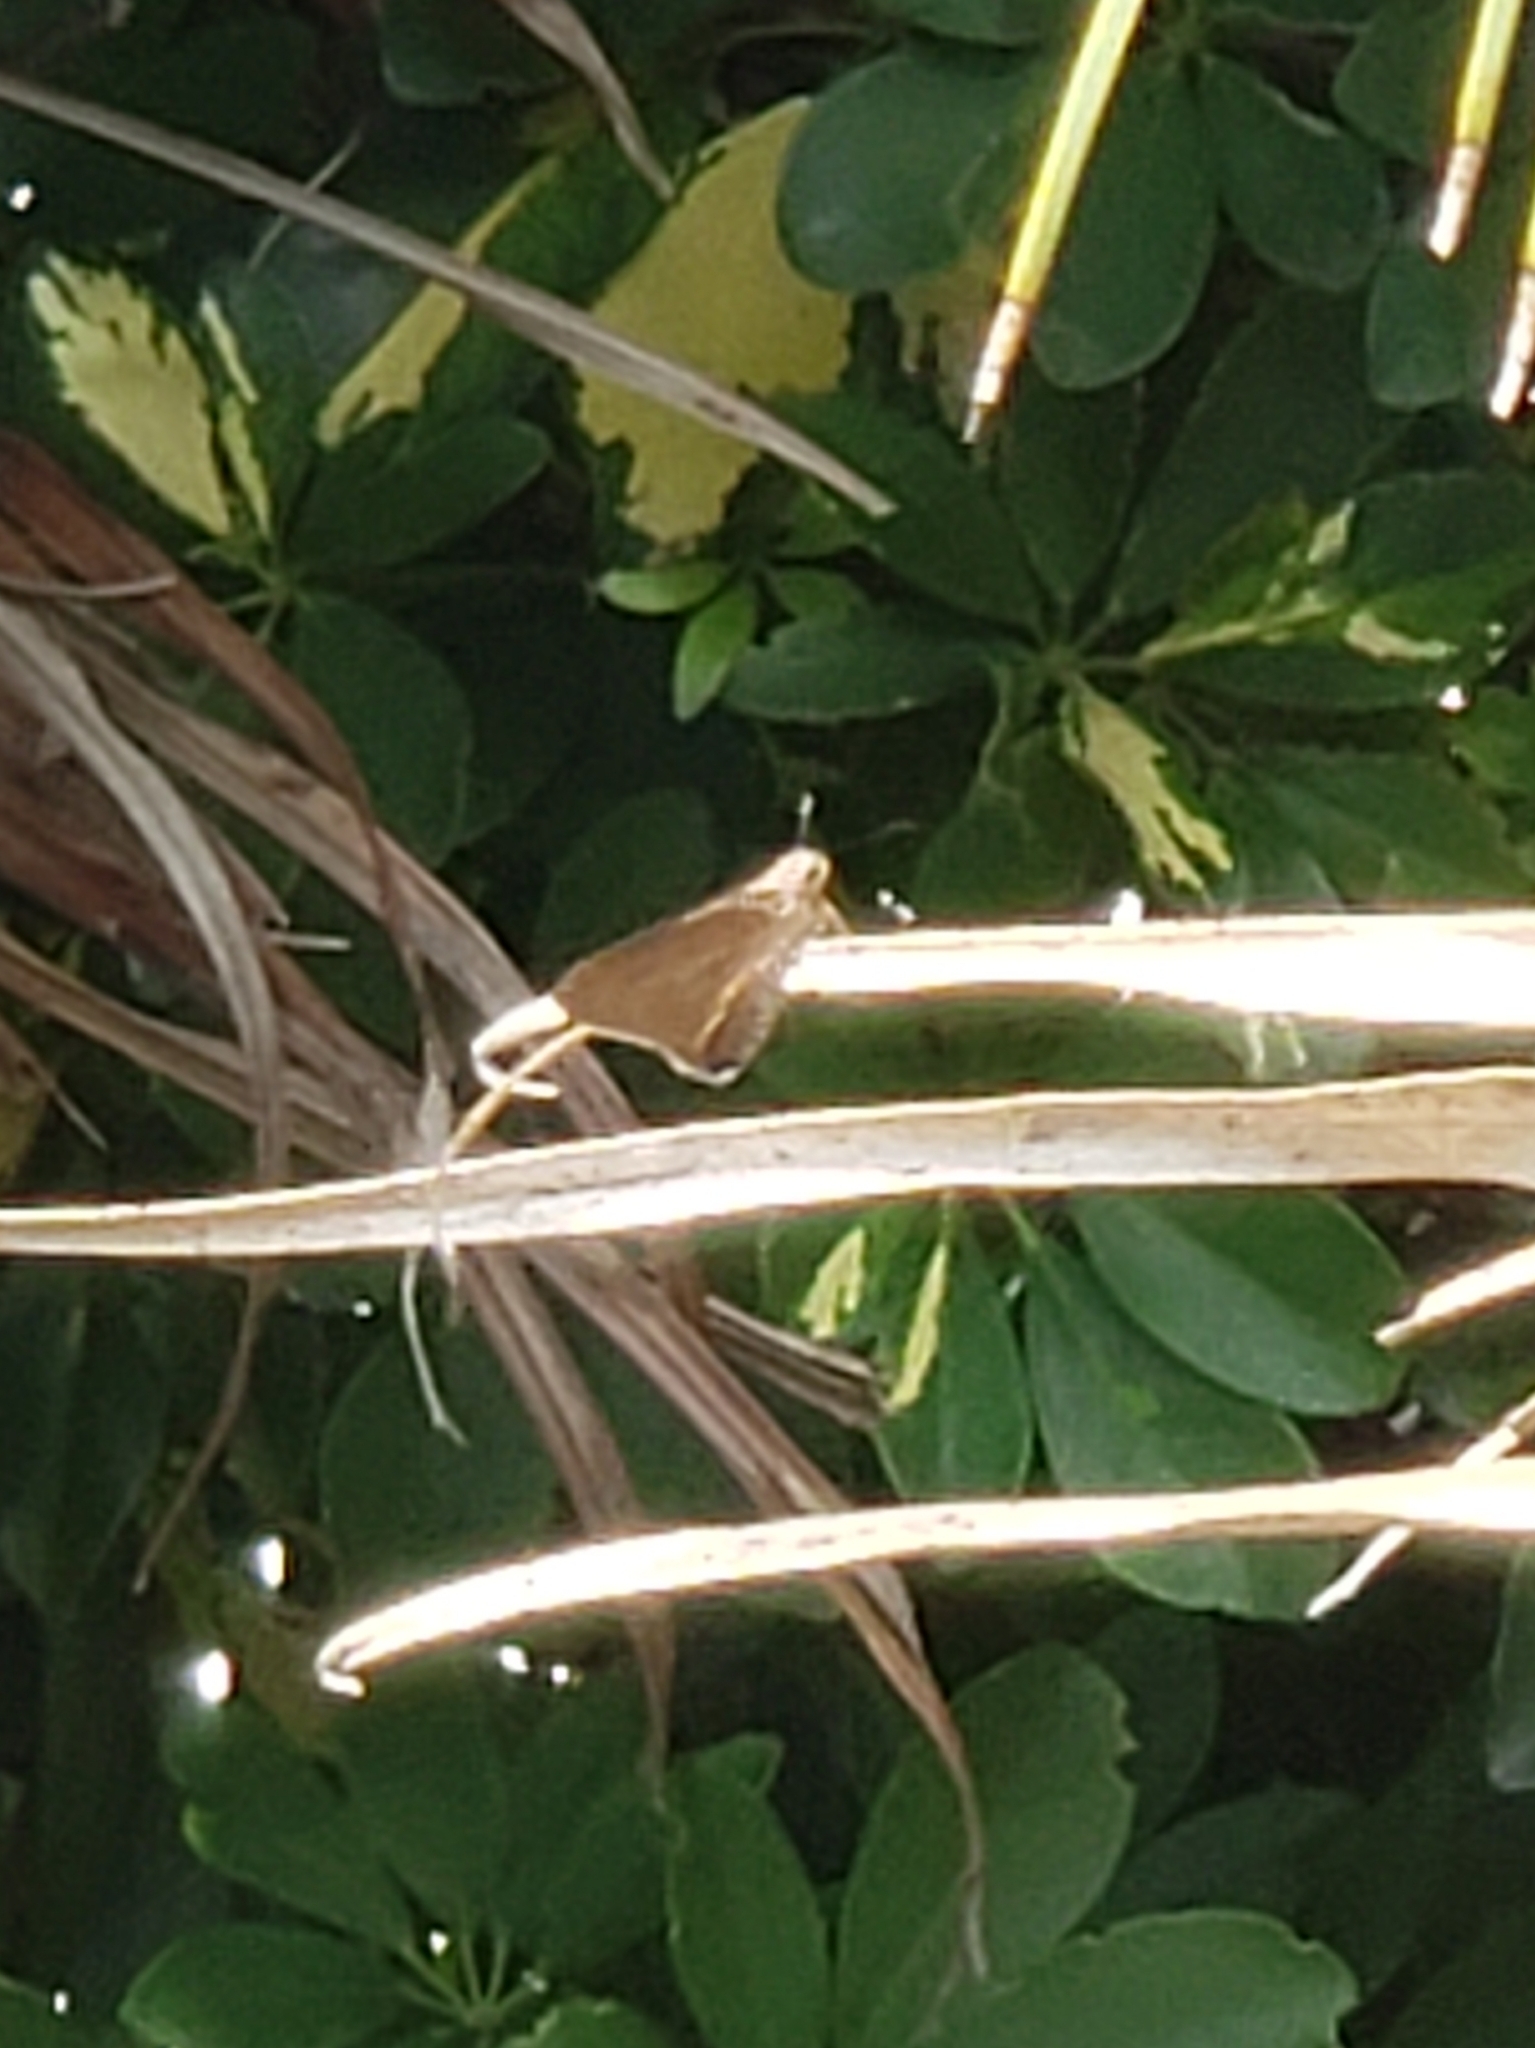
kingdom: Animalia
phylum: Arthropoda
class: Insecta
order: Lepidoptera
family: Hesperiidae
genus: Asbolis
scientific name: Asbolis capucinus
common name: Monk skipper
